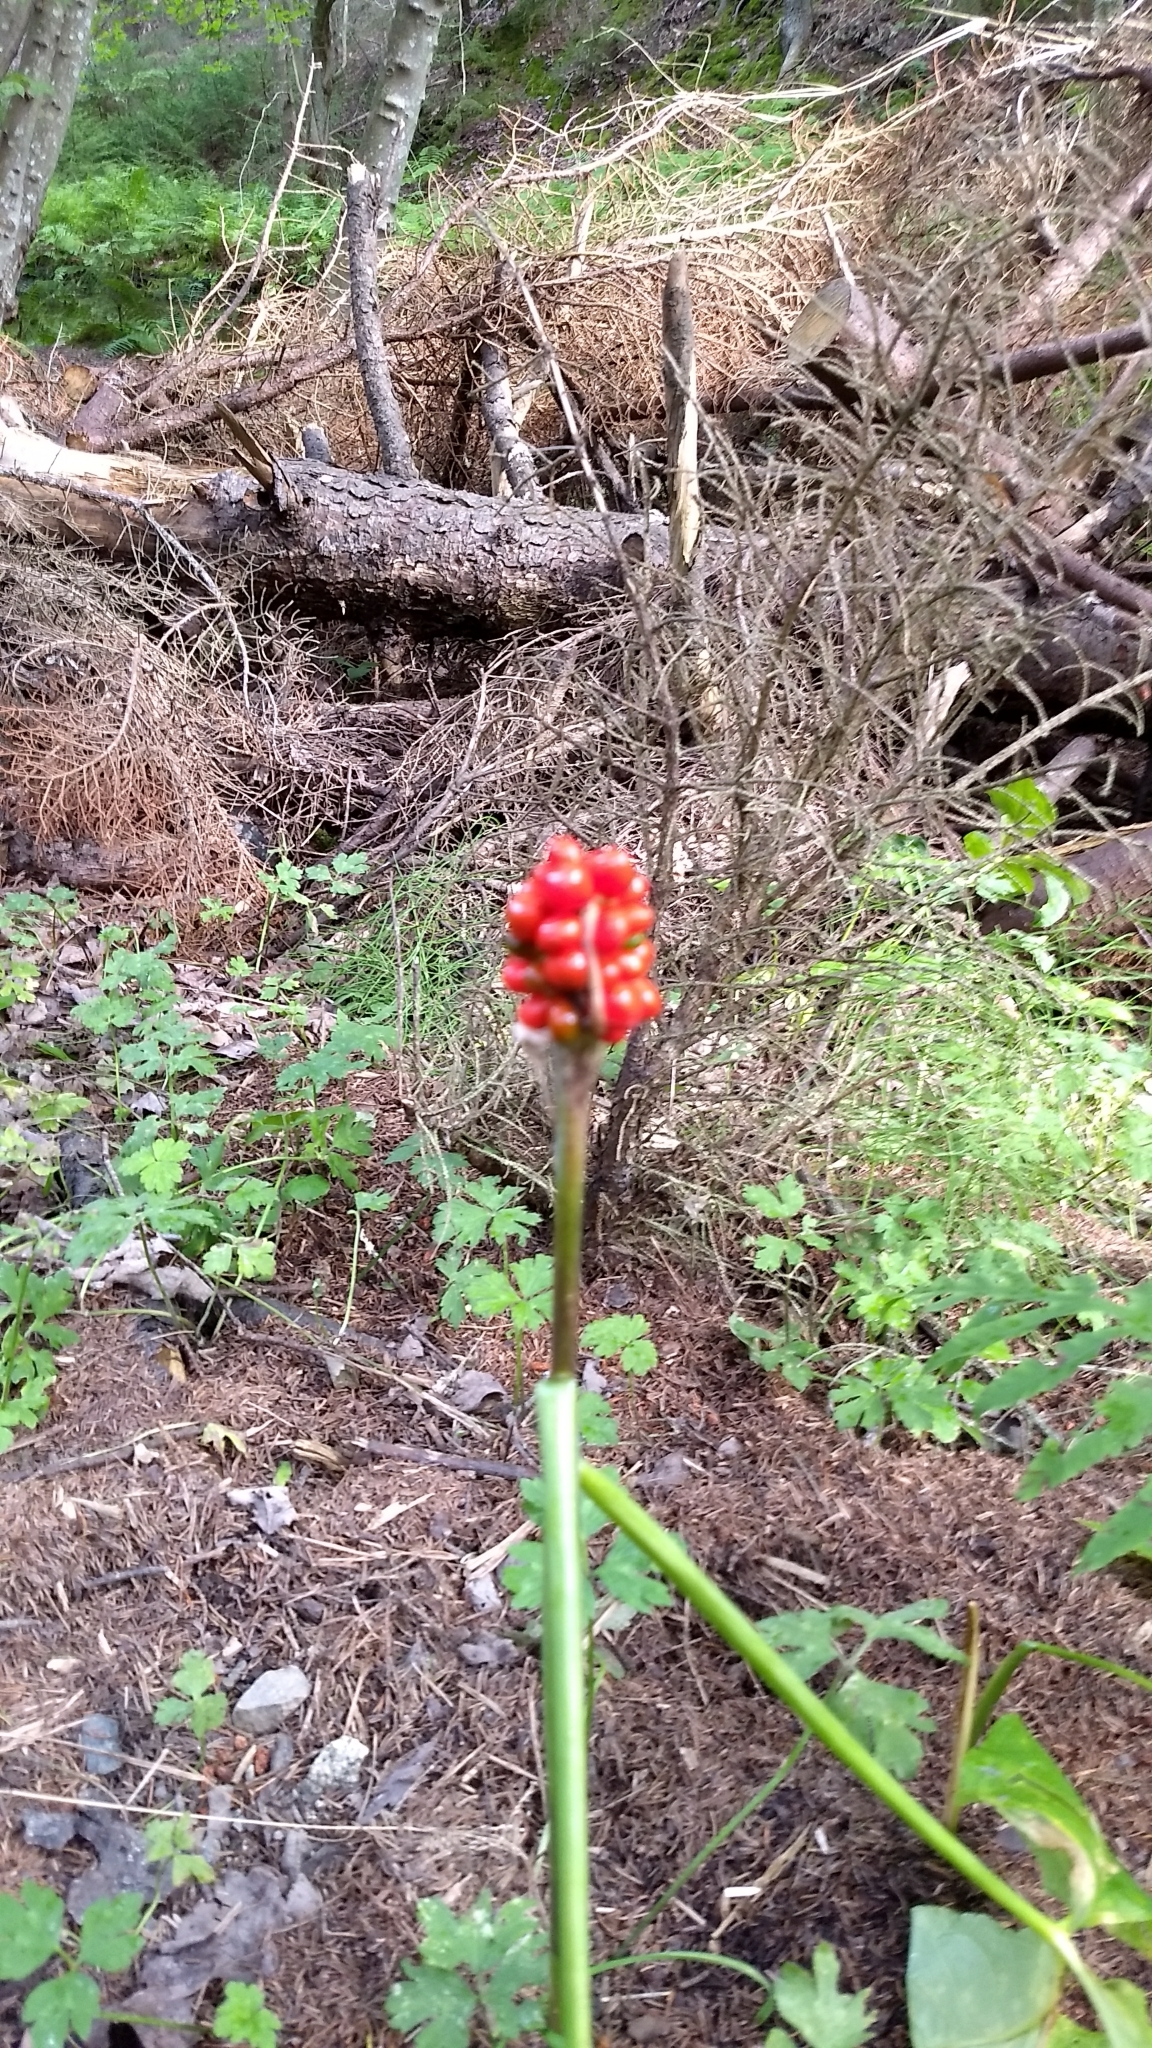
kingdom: Plantae
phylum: Tracheophyta
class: Liliopsida
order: Alismatales
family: Araceae
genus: Arisaema
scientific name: Arisaema triphyllum
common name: Jack-in-the-pulpit
